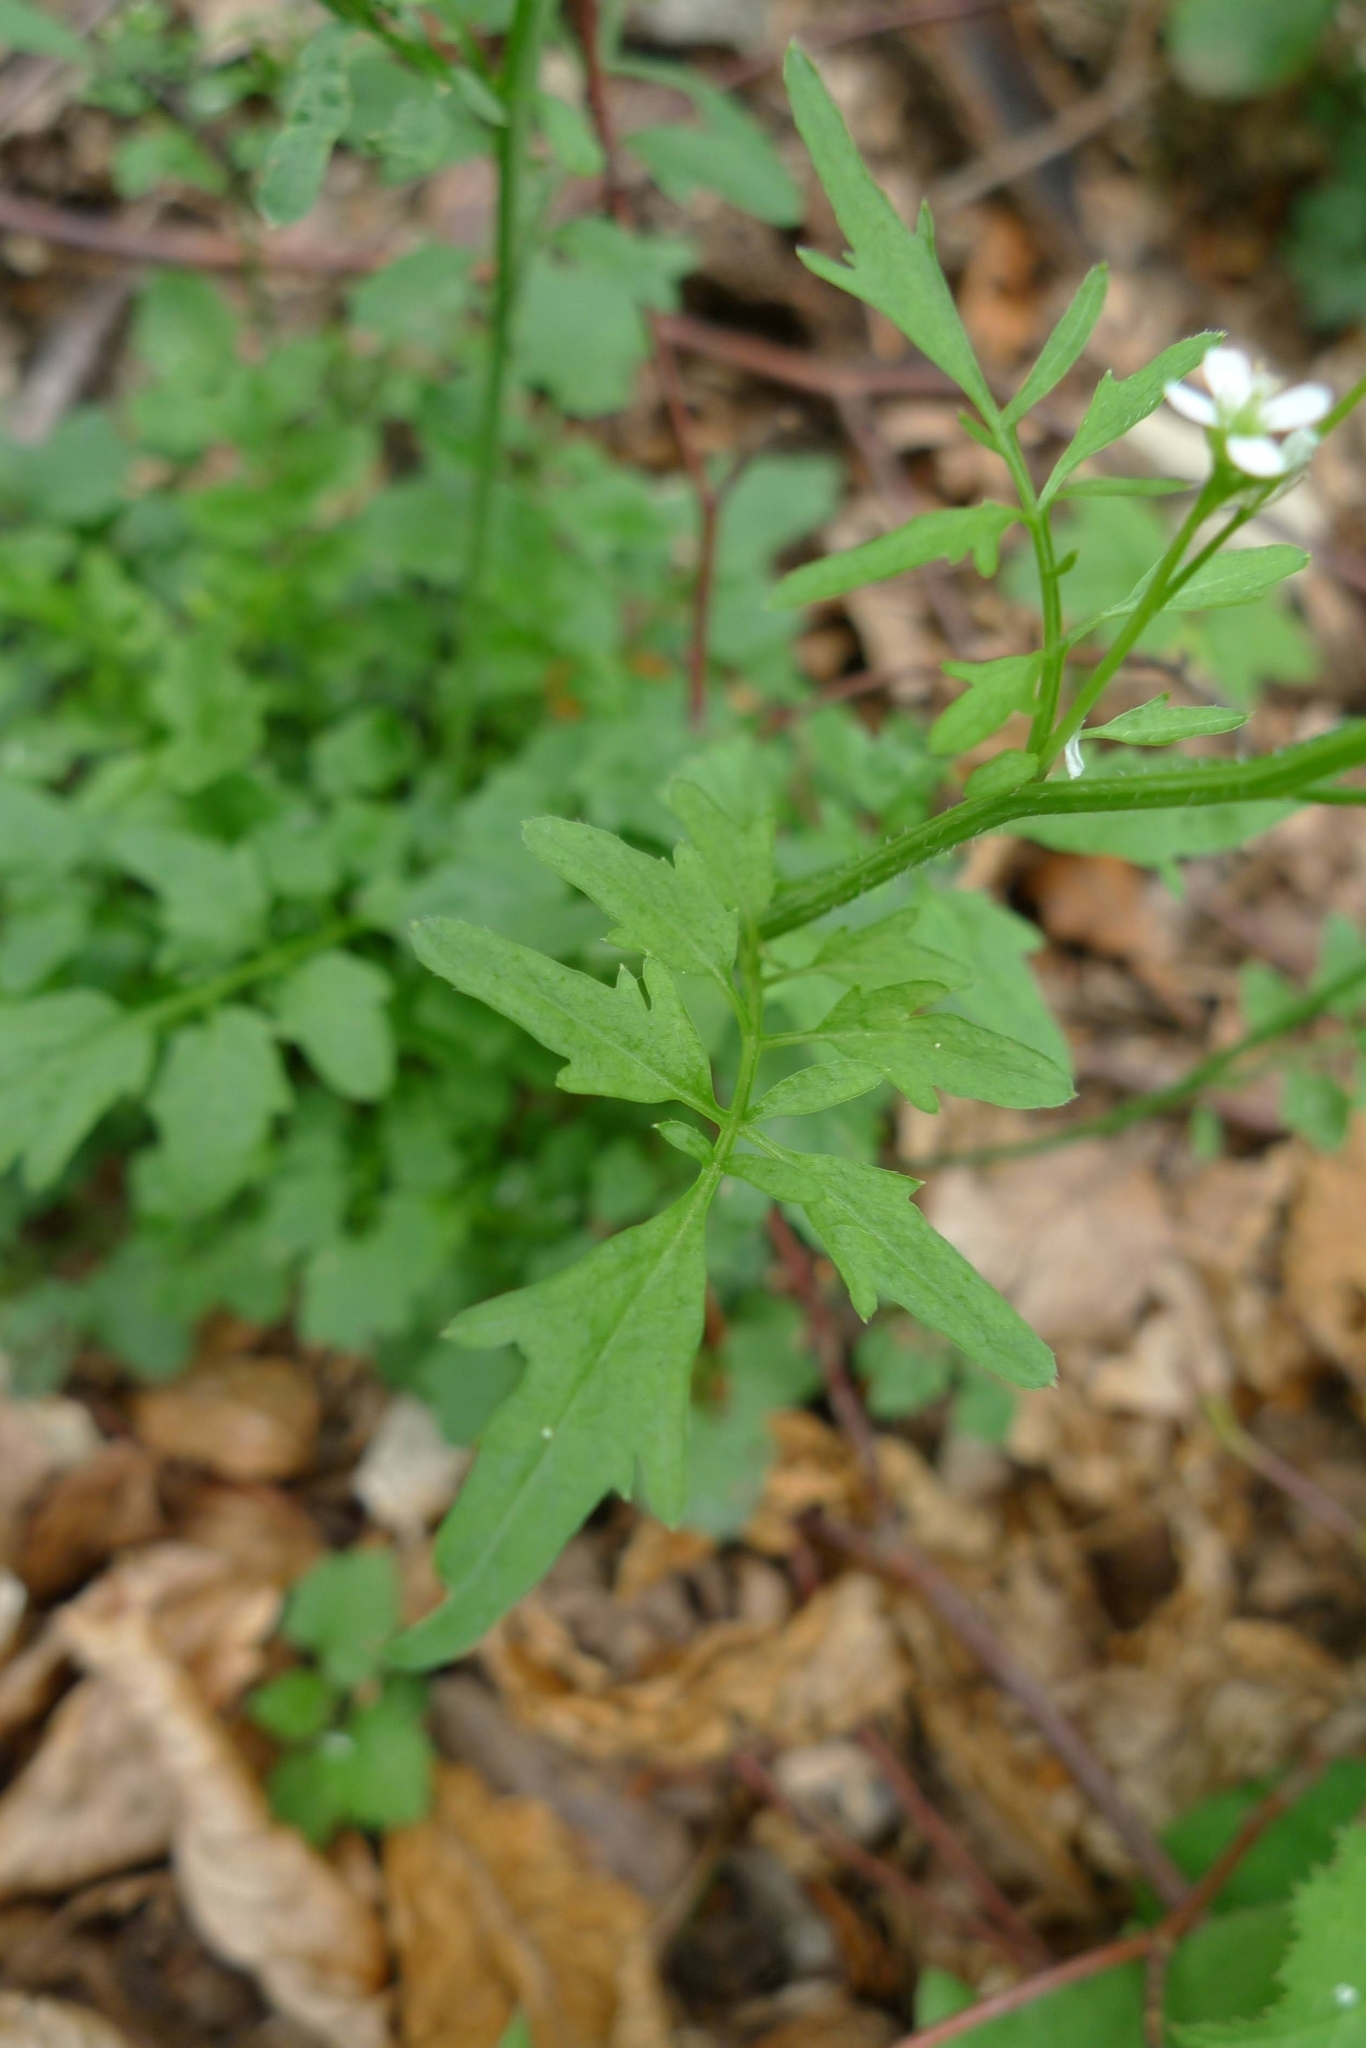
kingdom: Plantae
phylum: Tracheophyta
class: Magnoliopsida
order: Brassicales
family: Brassicaceae
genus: Cardamine
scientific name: Cardamine flexuosa
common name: Woodland bittercress
